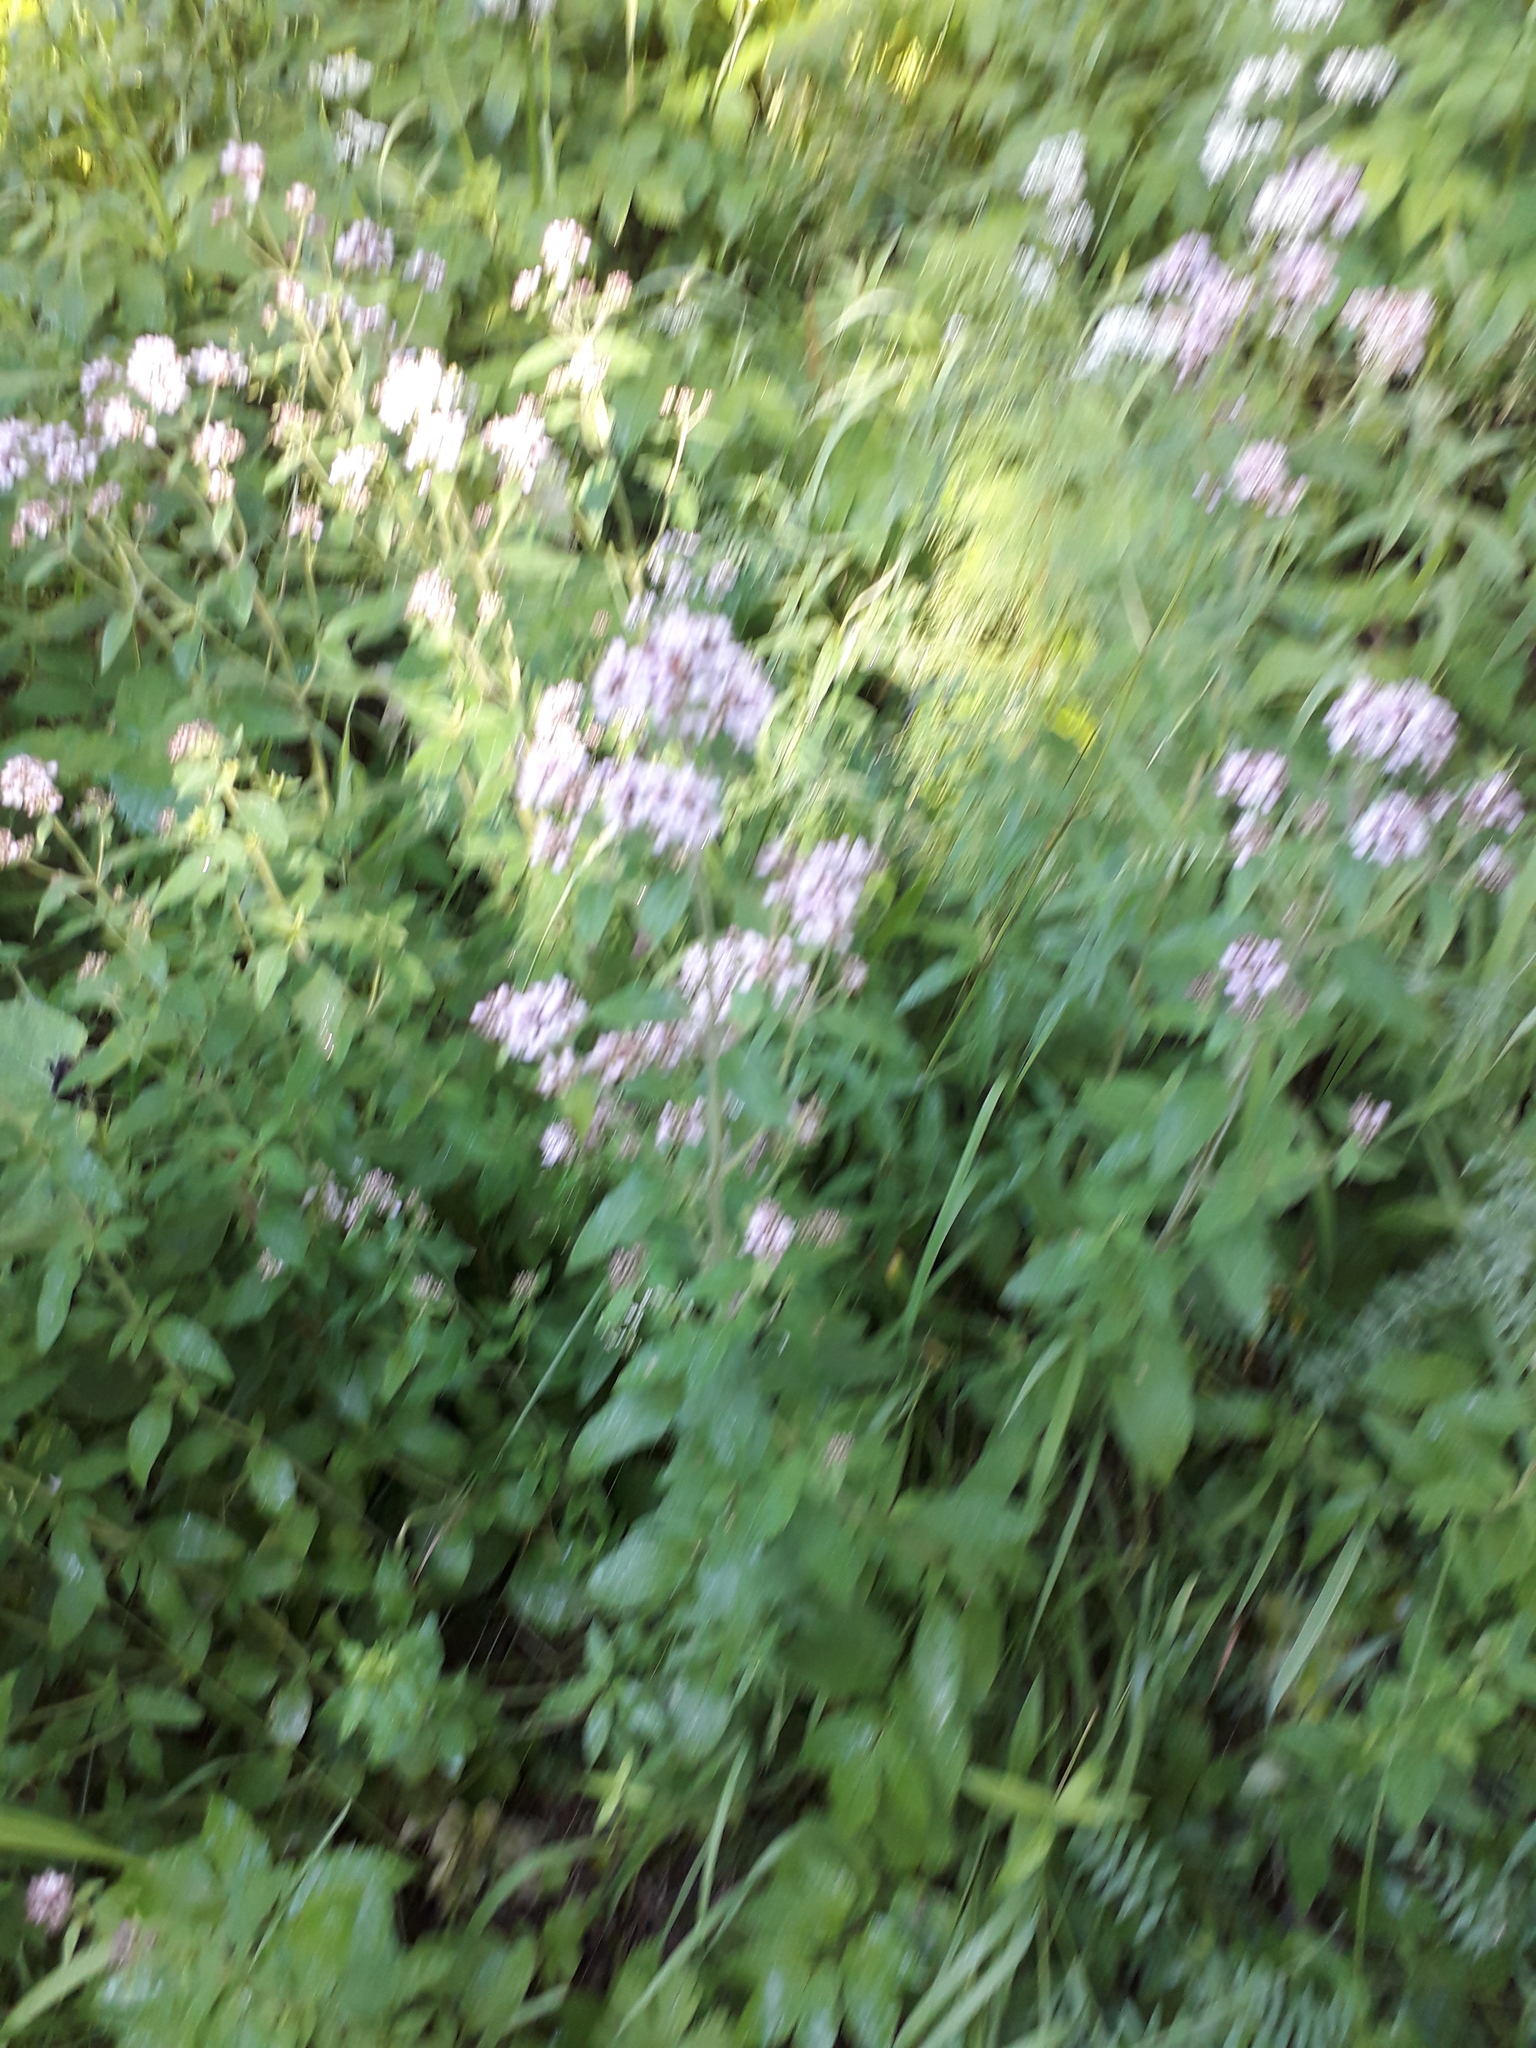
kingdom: Plantae
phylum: Tracheophyta
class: Magnoliopsida
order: Lamiales
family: Lamiaceae
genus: Origanum
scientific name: Origanum vulgare
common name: Wild marjoram
